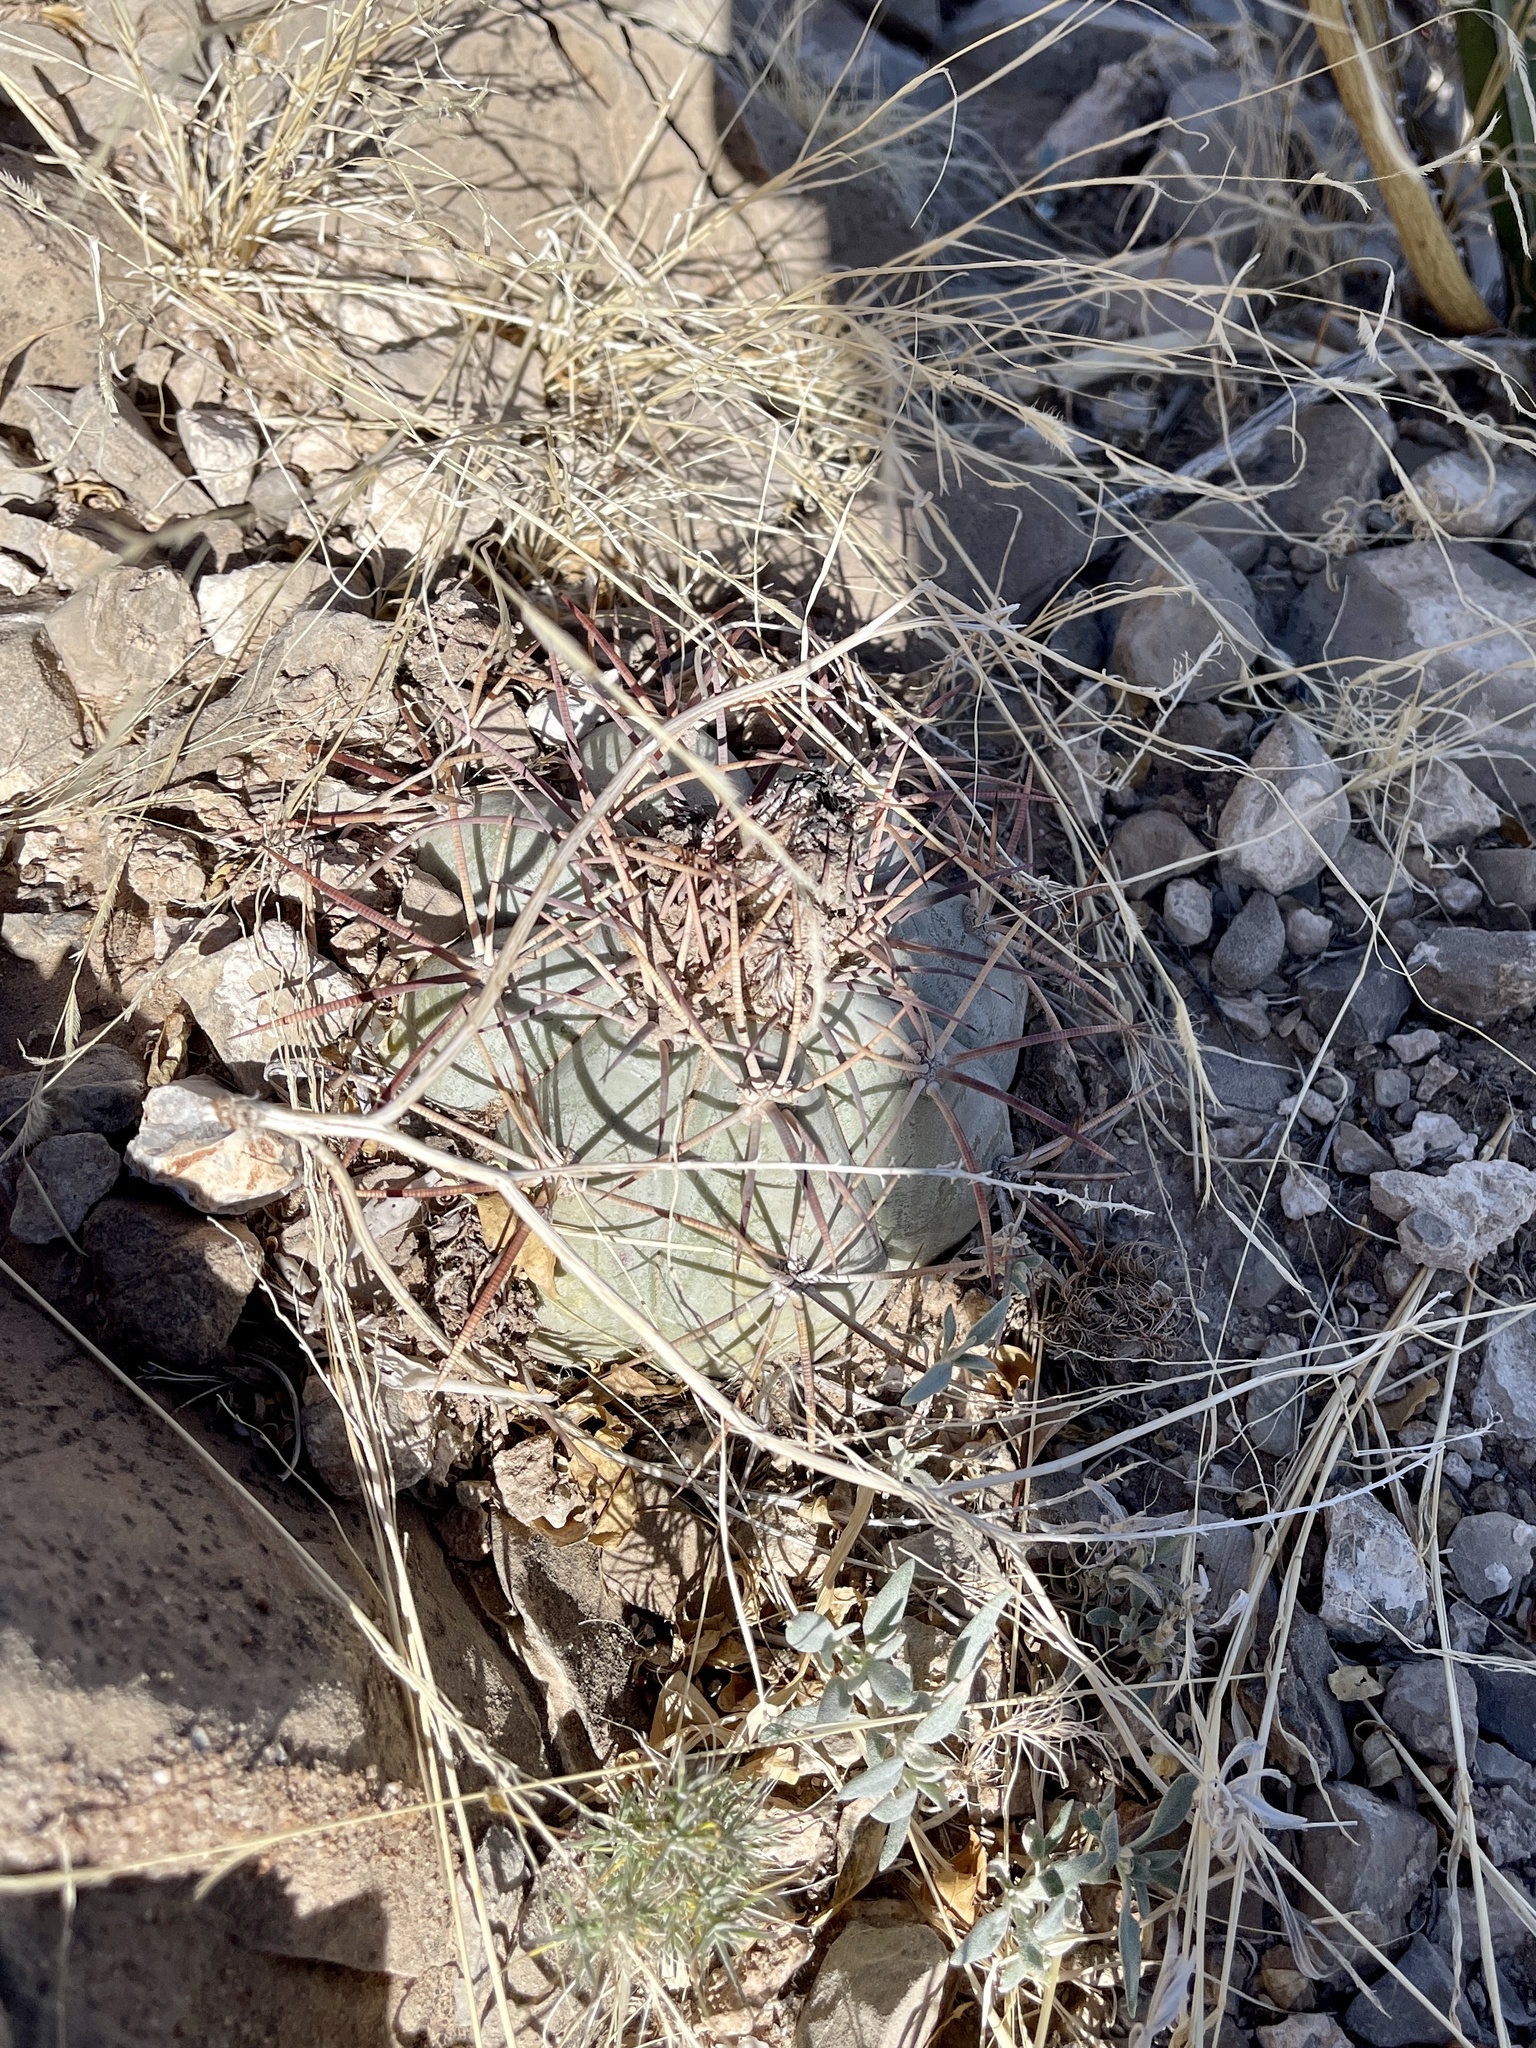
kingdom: Plantae
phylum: Tracheophyta
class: Magnoliopsida
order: Caryophyllales
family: Cactaceae
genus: Echinocactus
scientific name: Echinocactus horizonthalonius
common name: Devilshead
